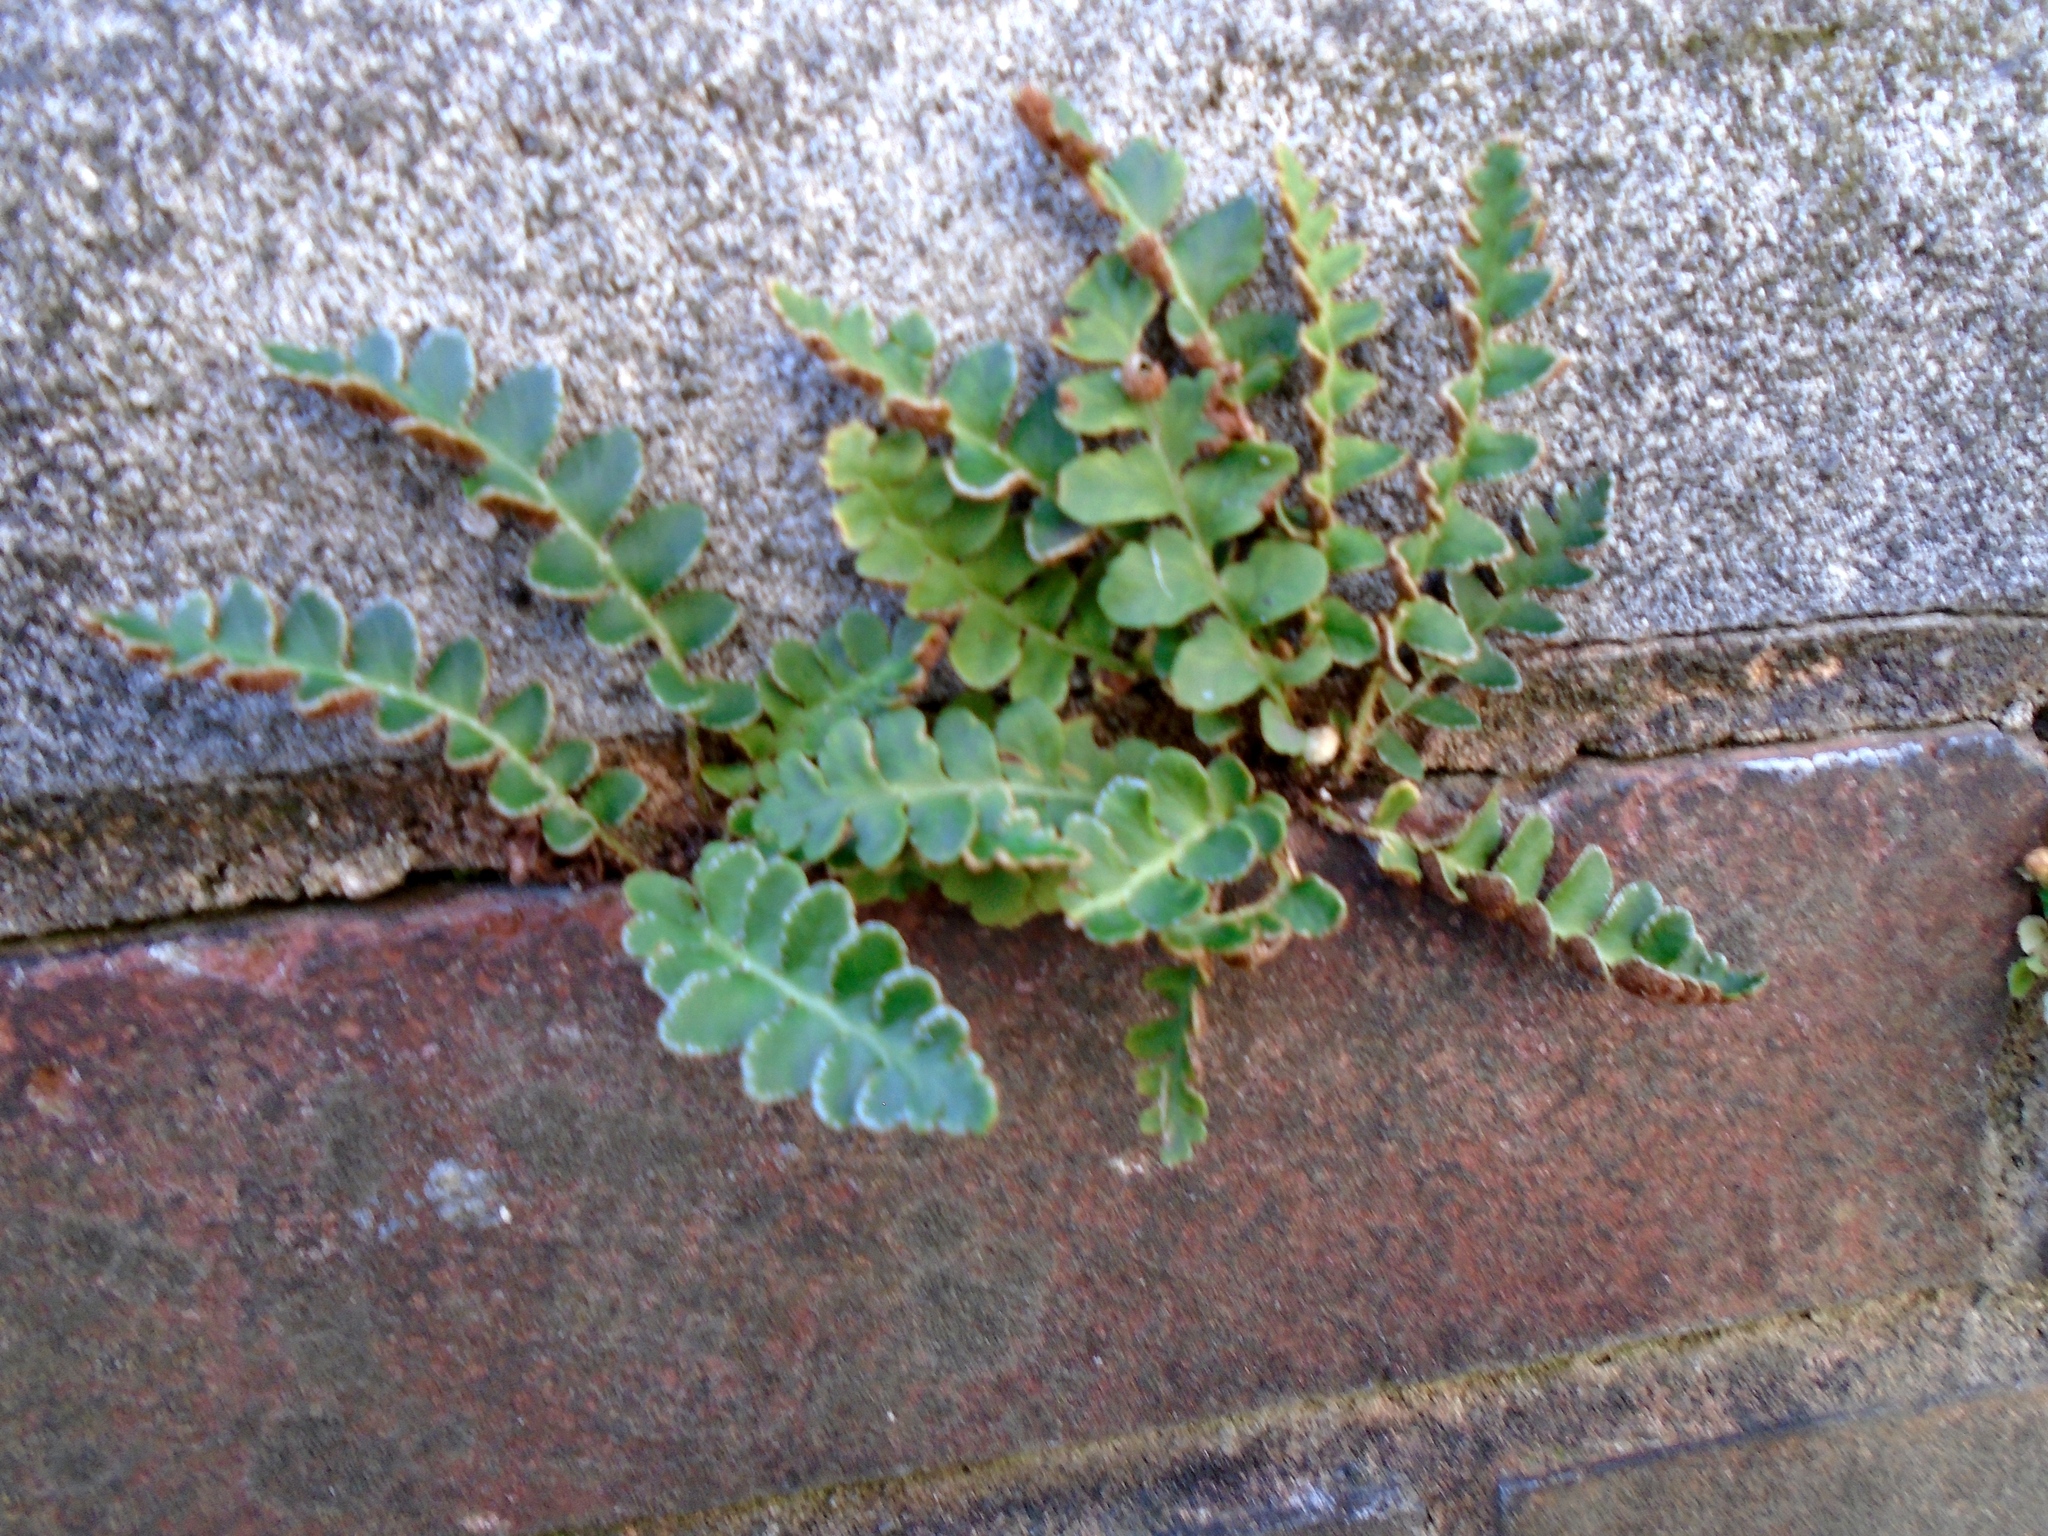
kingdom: Plantae
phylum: Tracheophyta
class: Polypodiopsida
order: Polypodiales
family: Aspleniaceae
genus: Asplenium
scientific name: Asplenium ceterach
